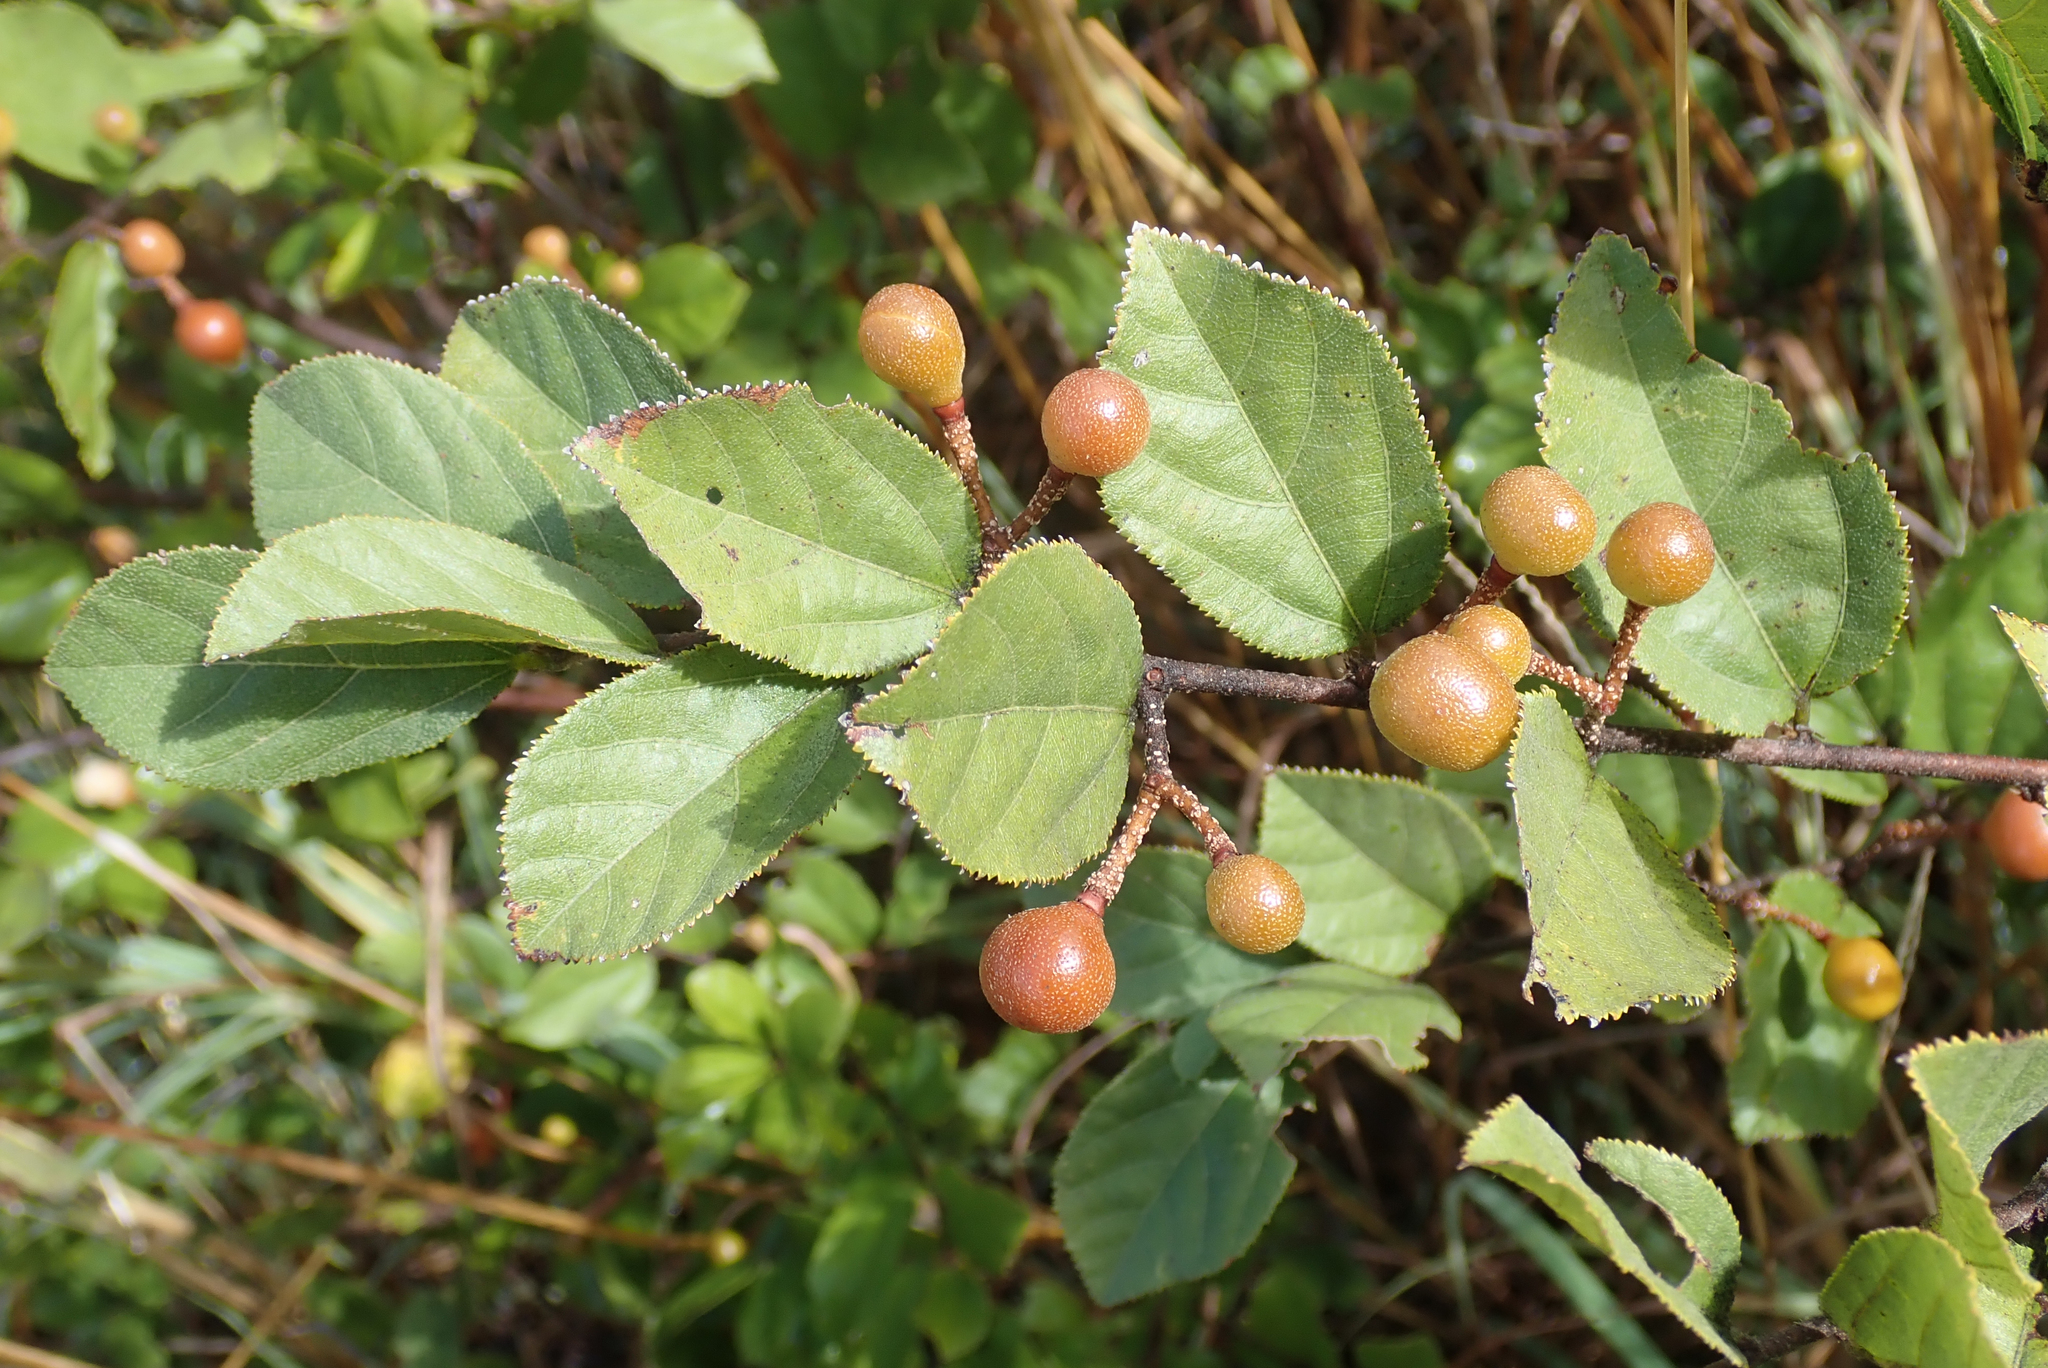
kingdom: Plantae
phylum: Tracheophyta
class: Magnoliopsida
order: Malvales
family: Malvaceae
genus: Grewia
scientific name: Grewia retinervis
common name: Kalahari raisin
